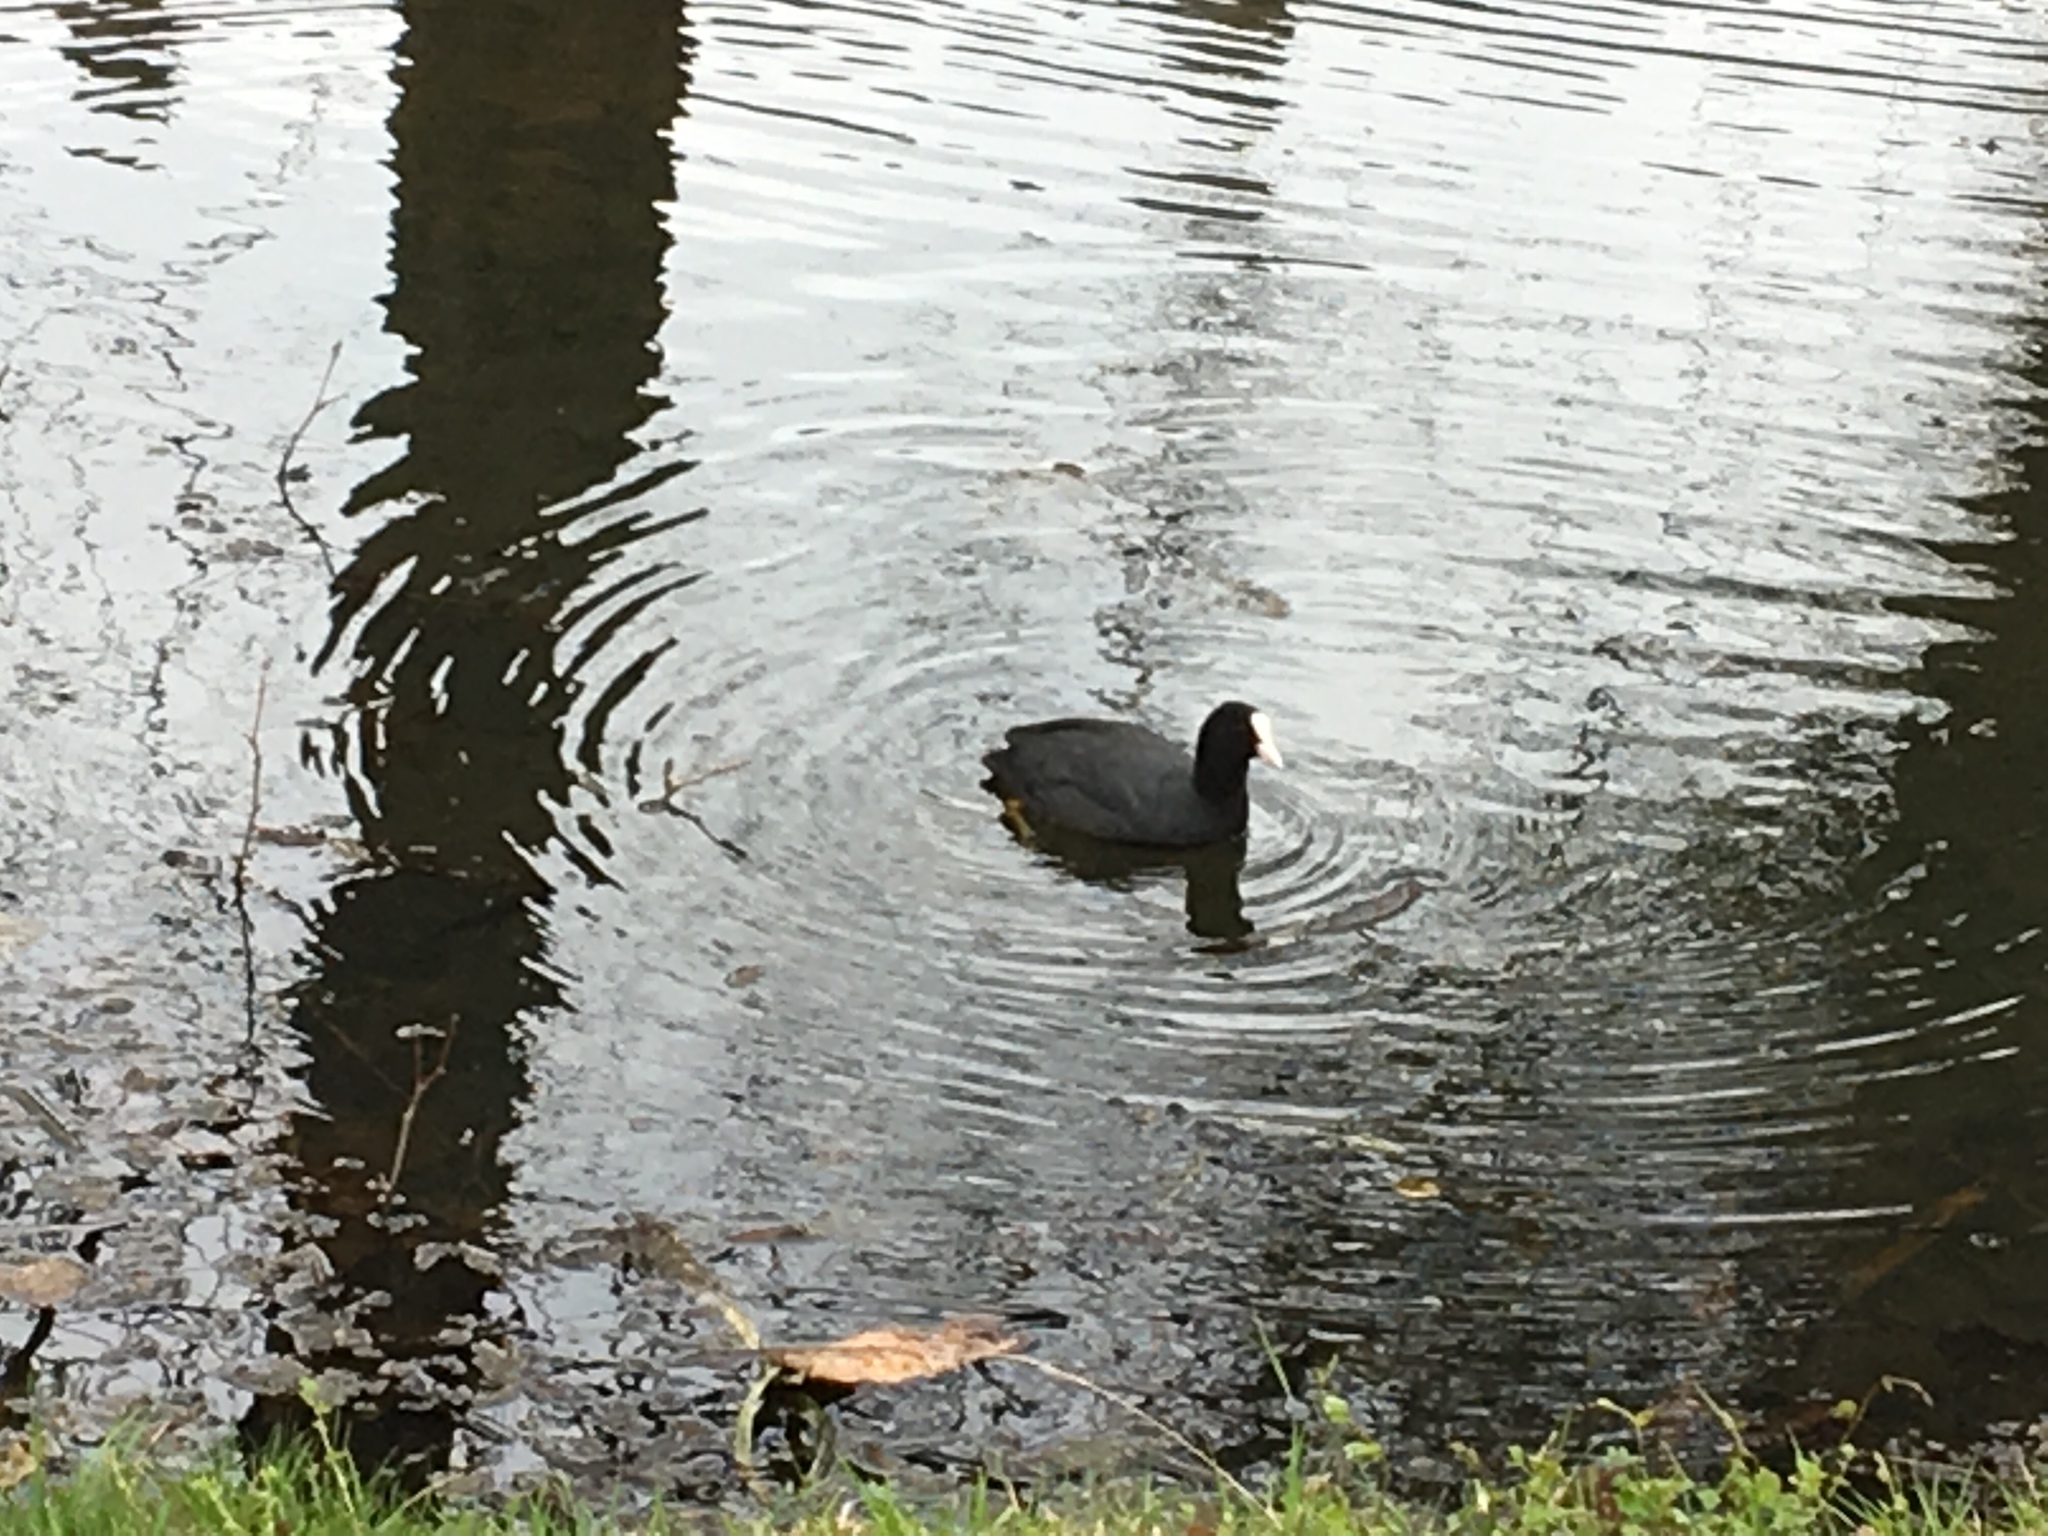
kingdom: Animalia
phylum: Chordata
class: Aves
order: Gruiformes
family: Rallidae
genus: Fulica
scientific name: Fulica atra
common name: Eurasian coot
